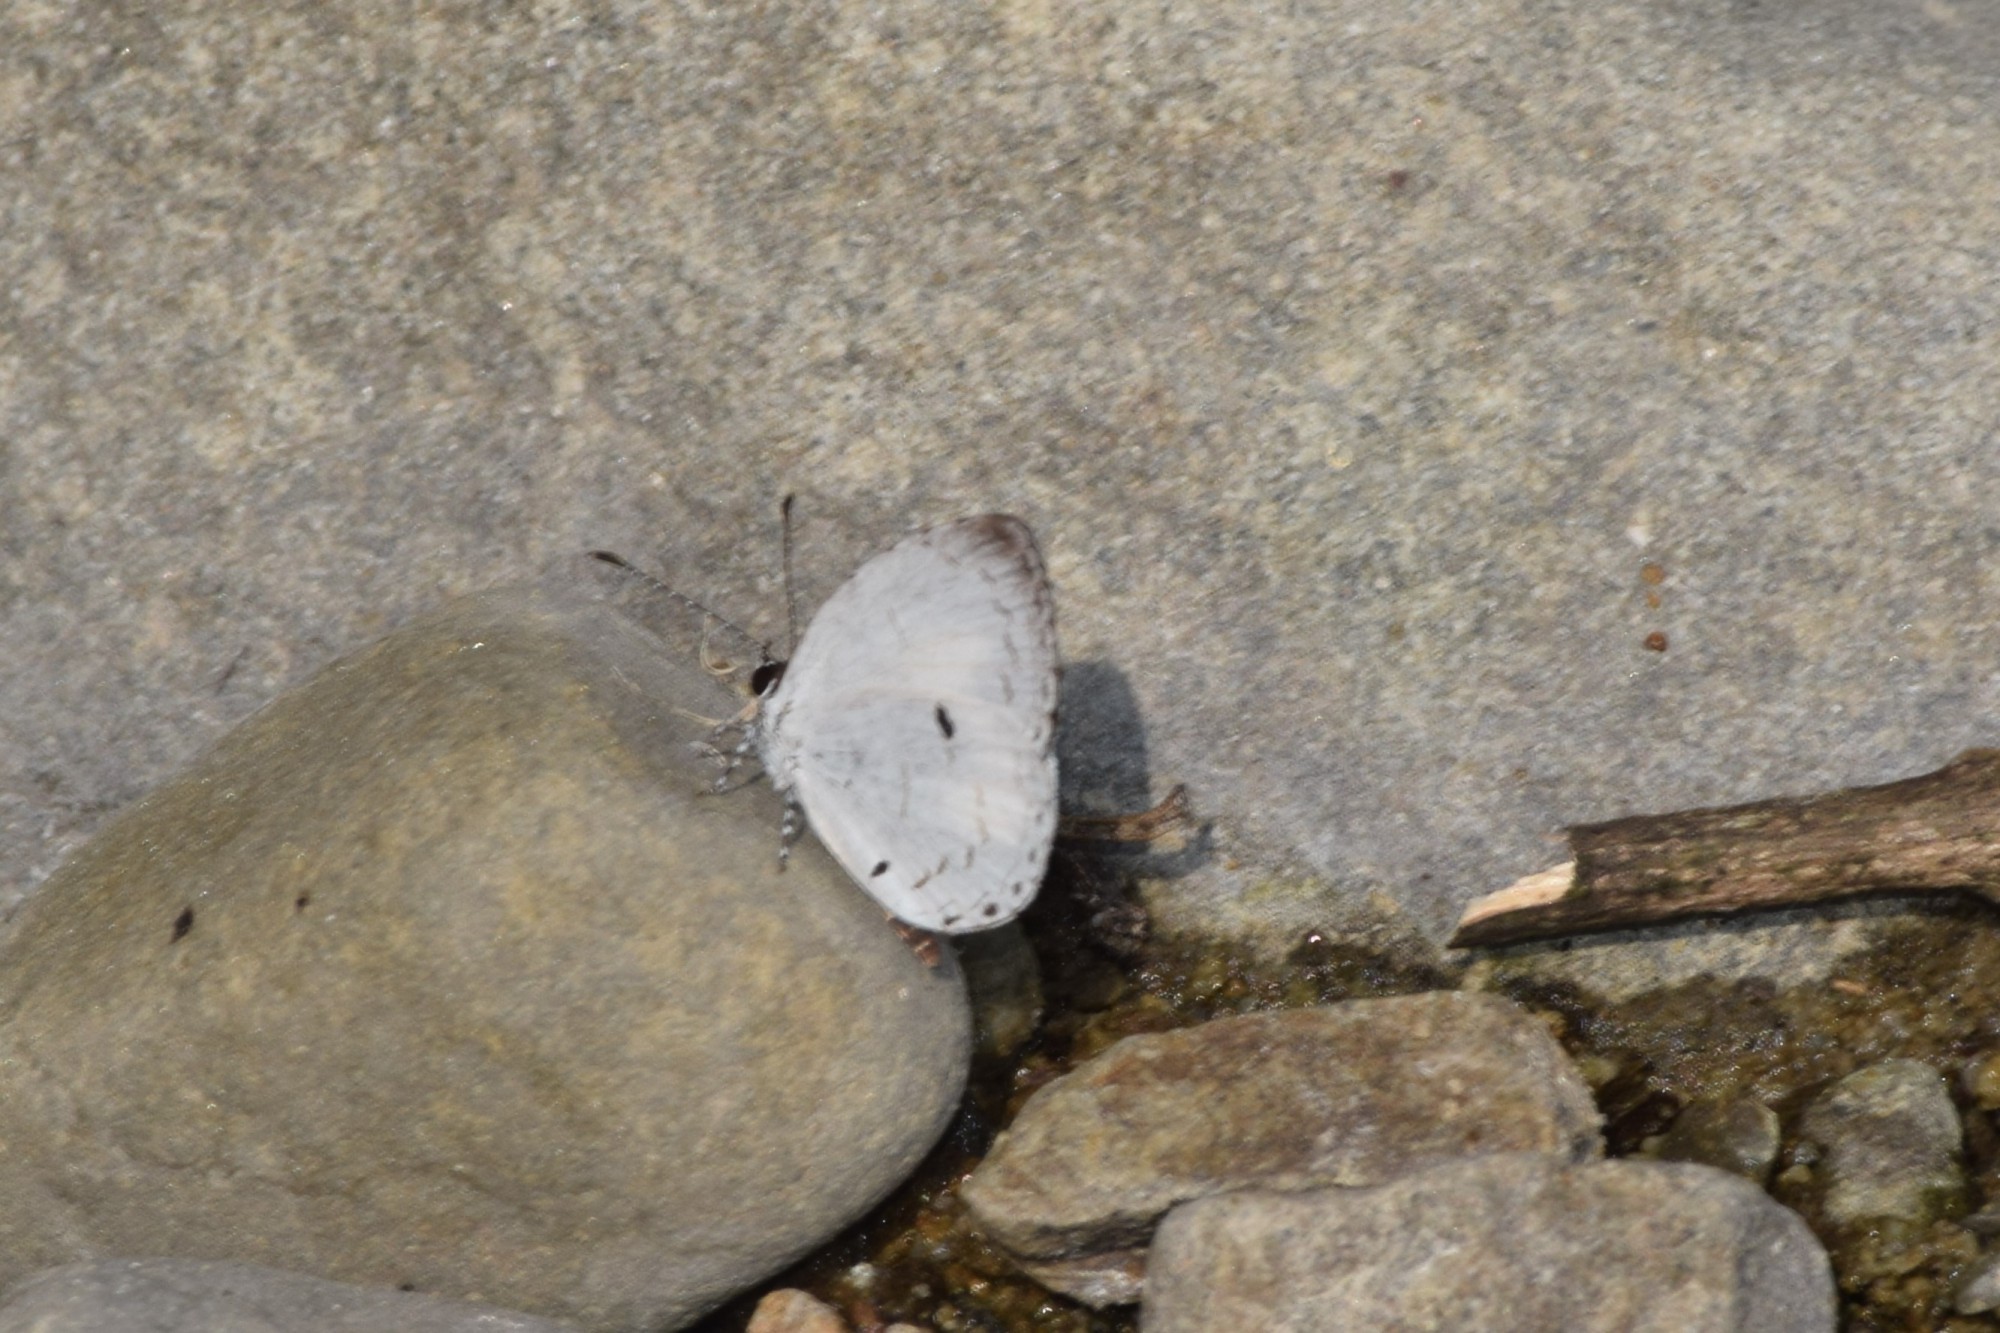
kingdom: Animalia
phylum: Arthropoda
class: Insecta
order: Lepidoptera
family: Lycaenidae
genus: Neopithecops
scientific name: Neopithecops zalmora
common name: Quaker
